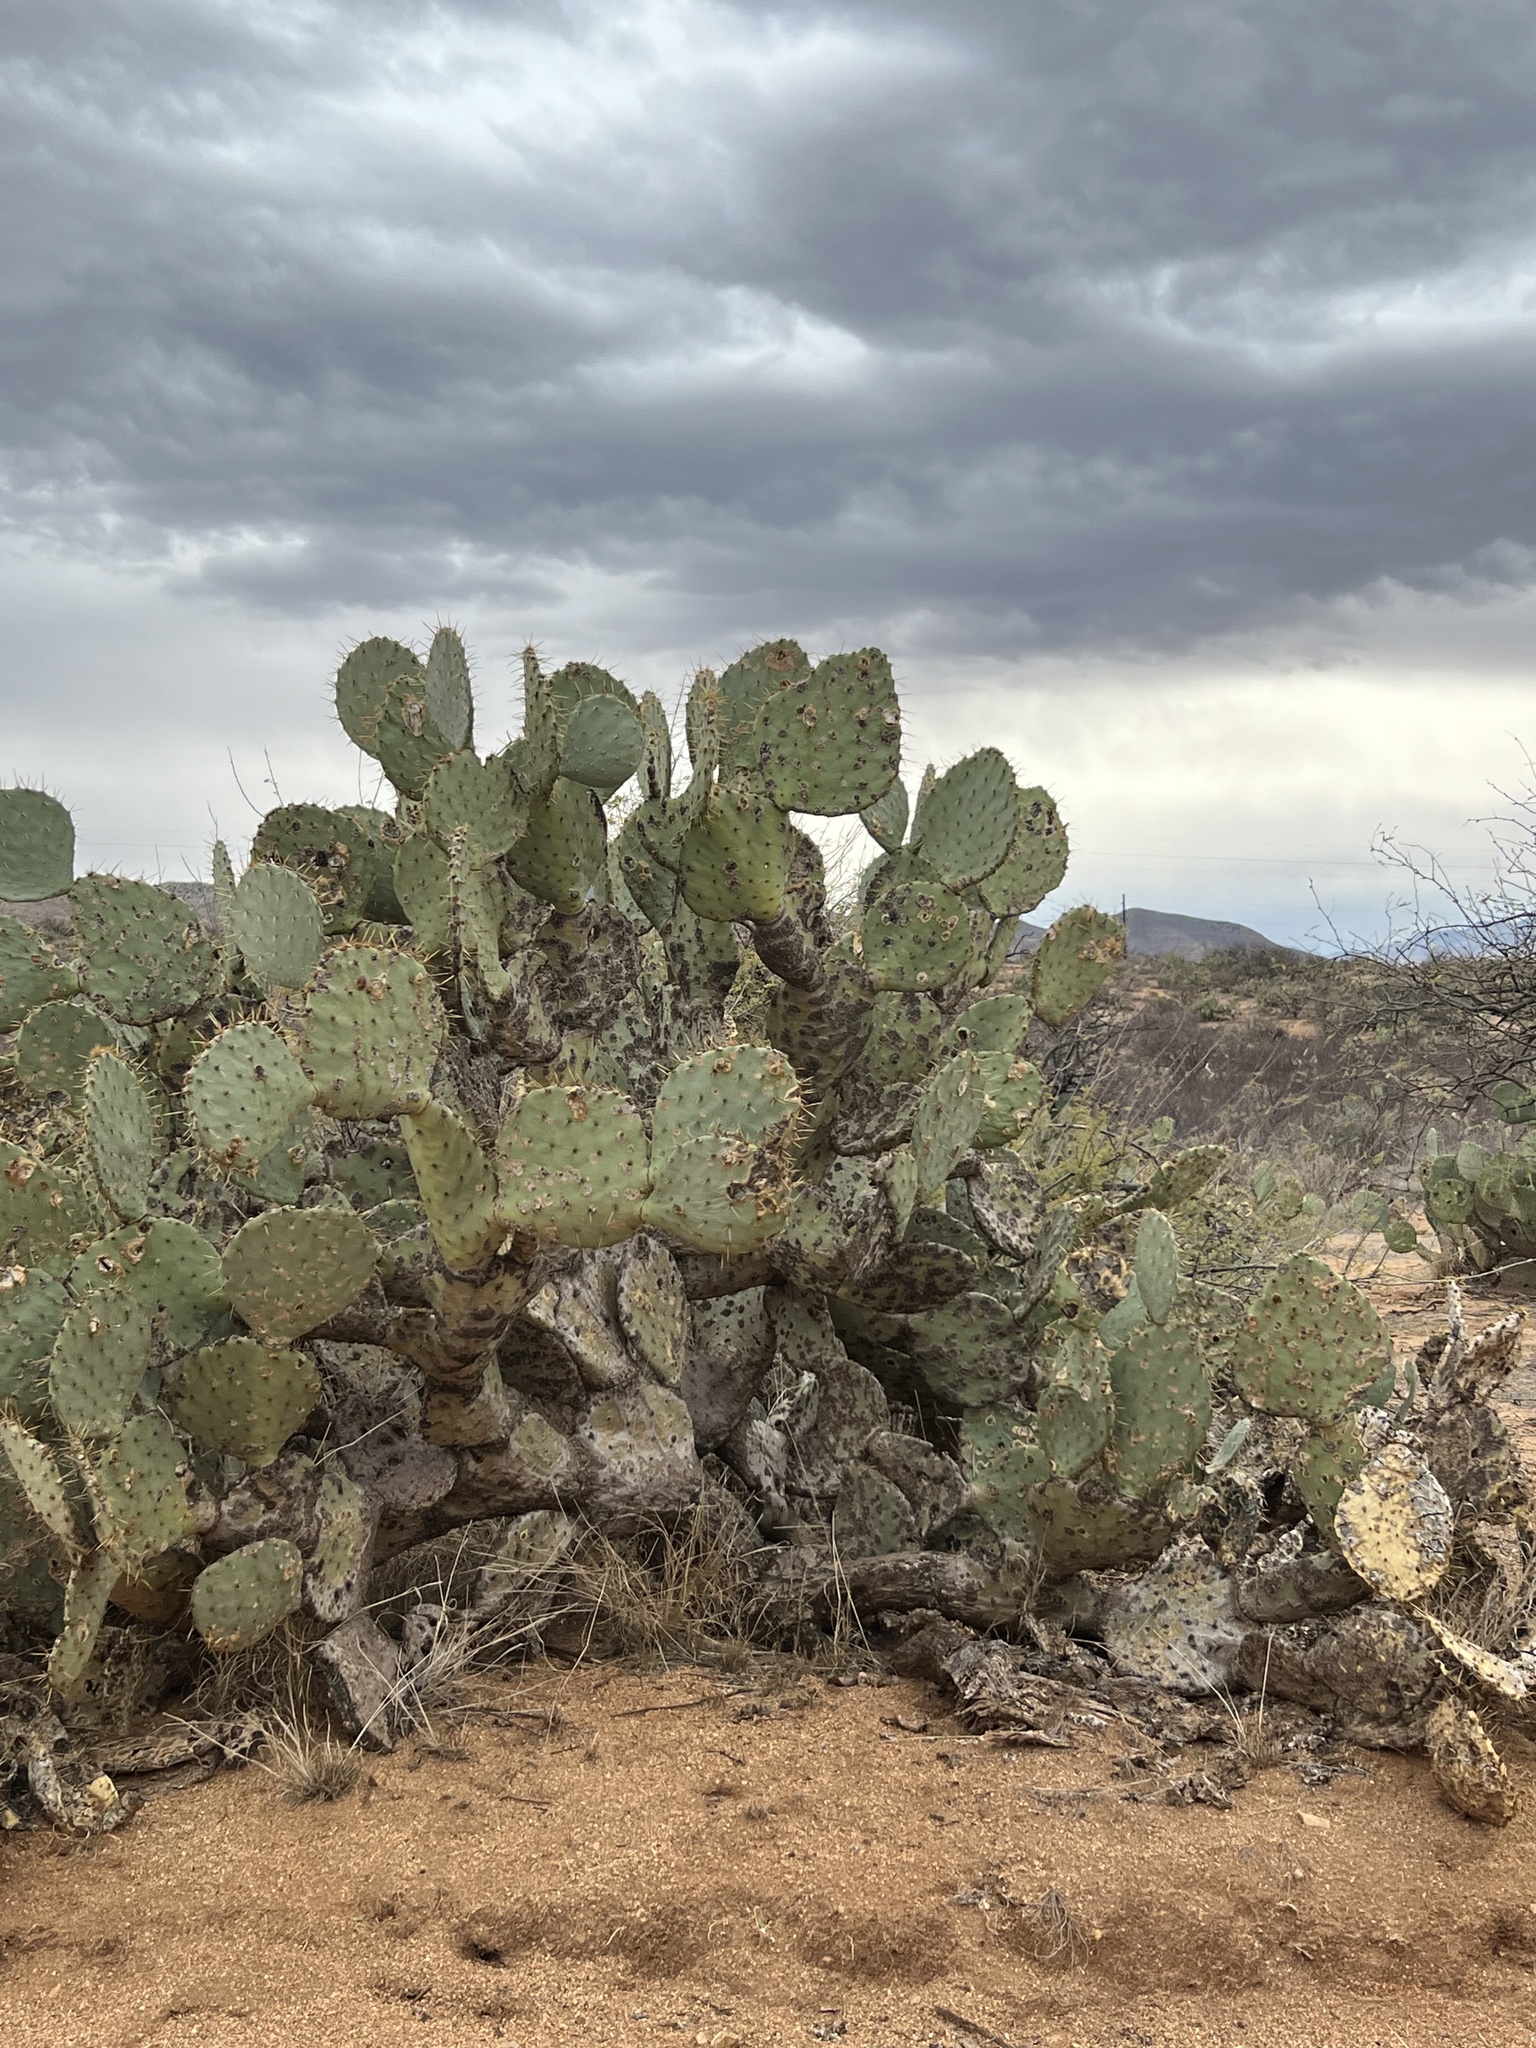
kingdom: Plantae
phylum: Tracheophyta
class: Magnoliopsida
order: Caryophyllales
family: Cactaceae
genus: Opuntia
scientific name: Opuntia engelmannii
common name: Cactus-apple
